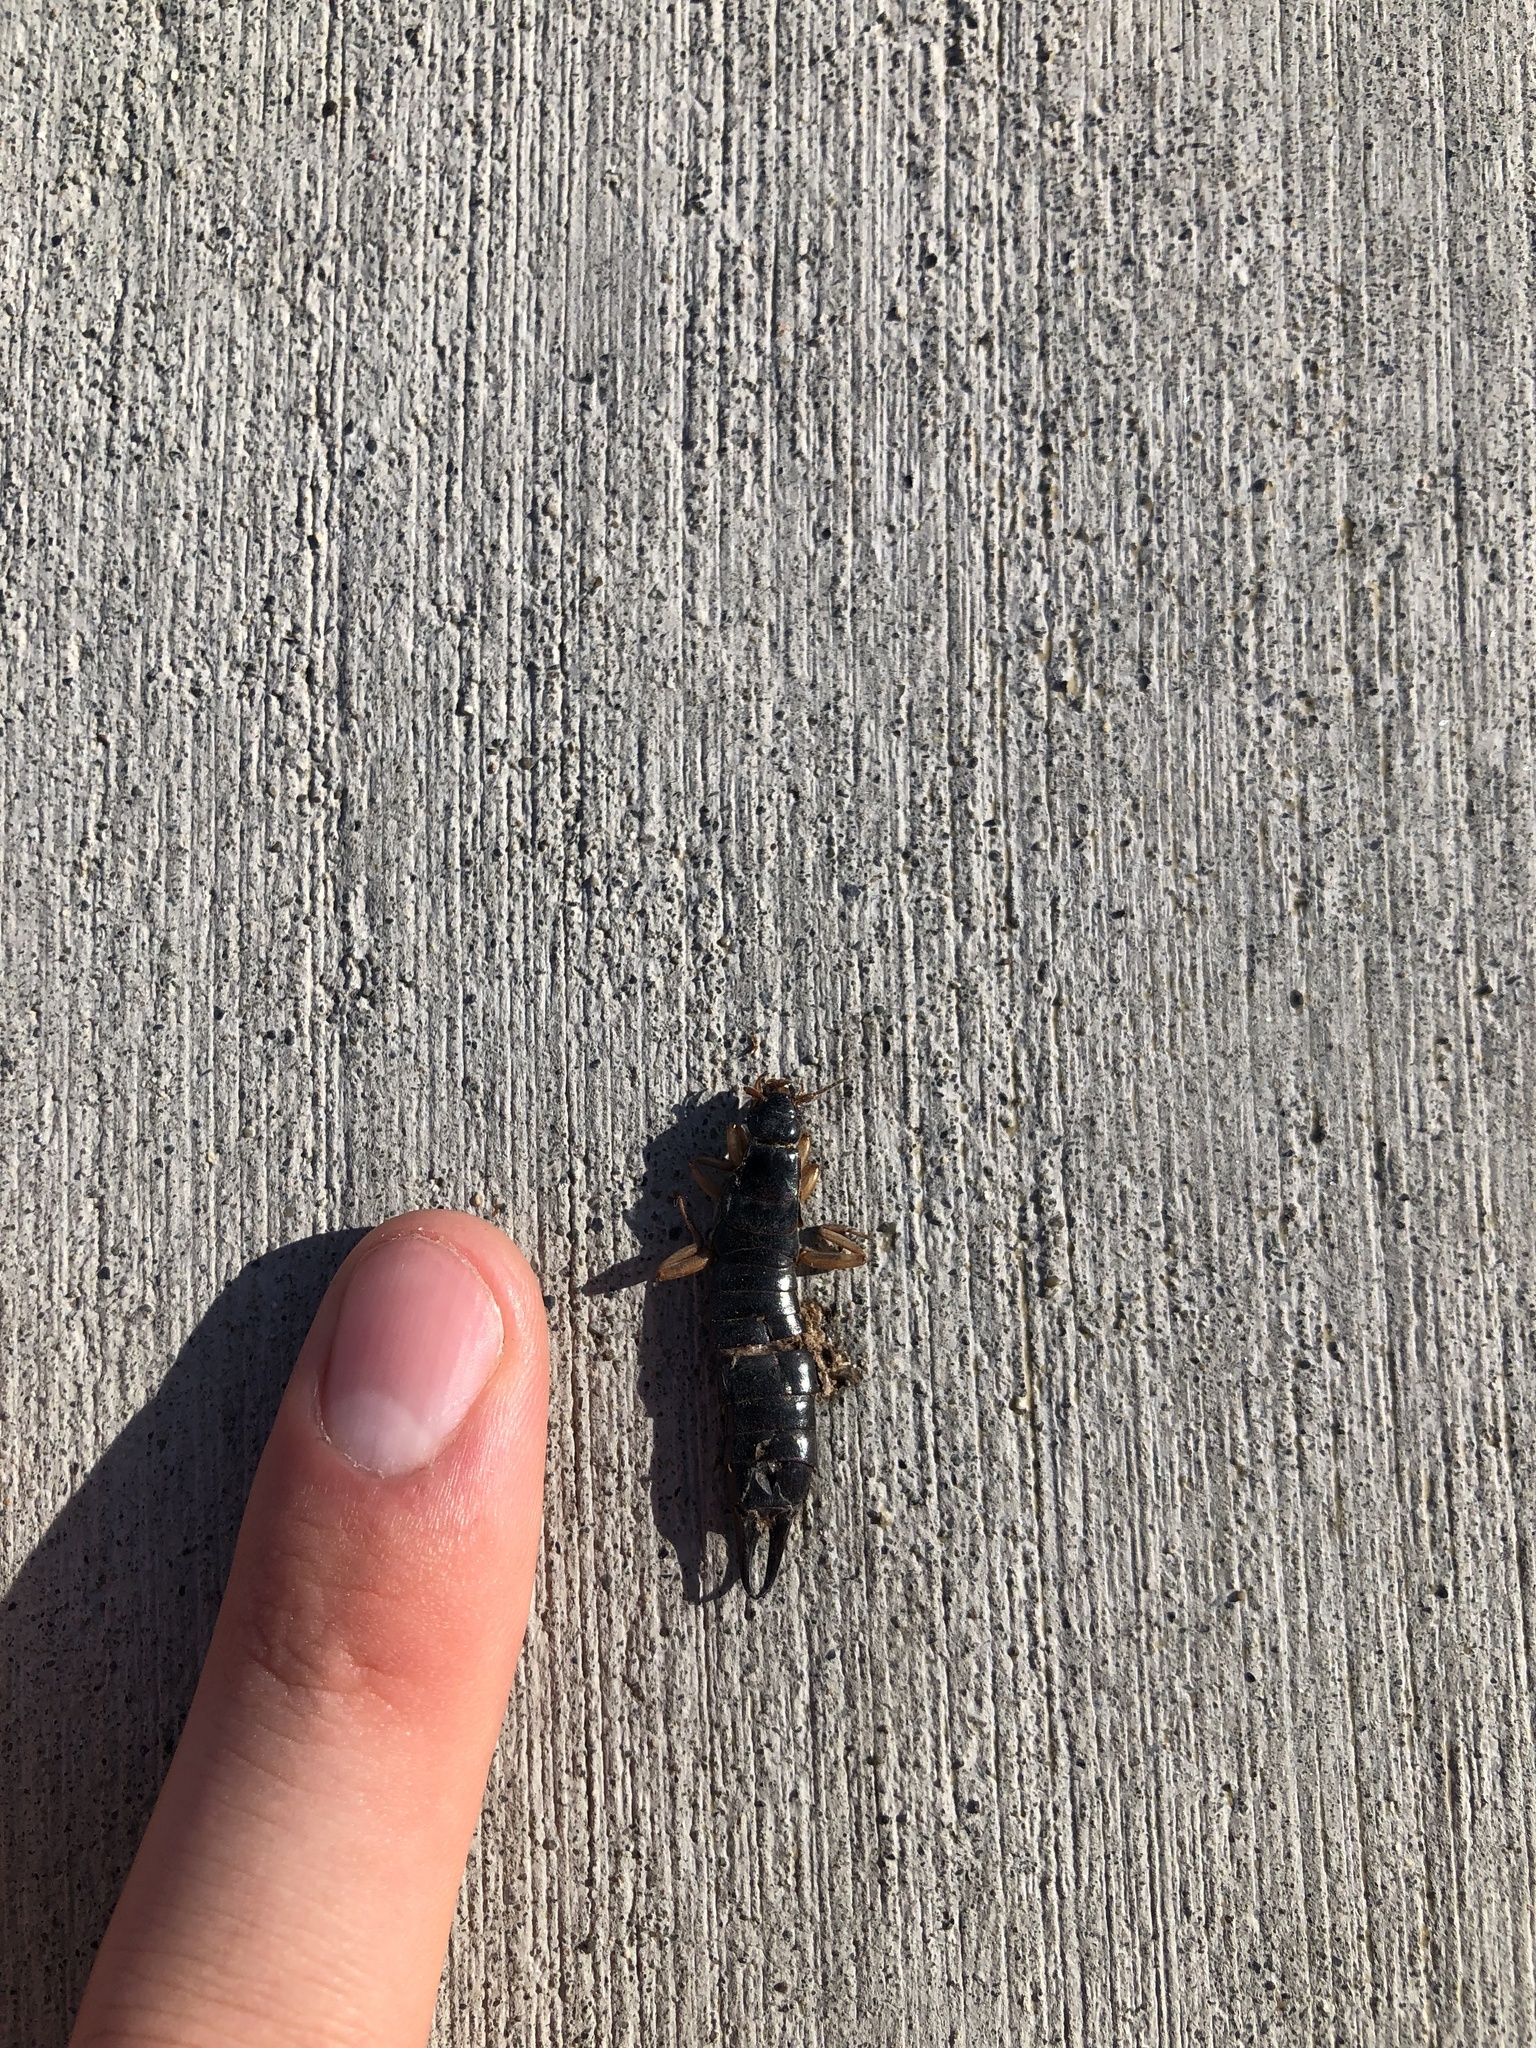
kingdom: Animalia
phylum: Arthropoda
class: Insecta
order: Dermaptera
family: Anisolabididae
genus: Anisolabis
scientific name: Anisolabis maritima
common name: Maritime earwig
